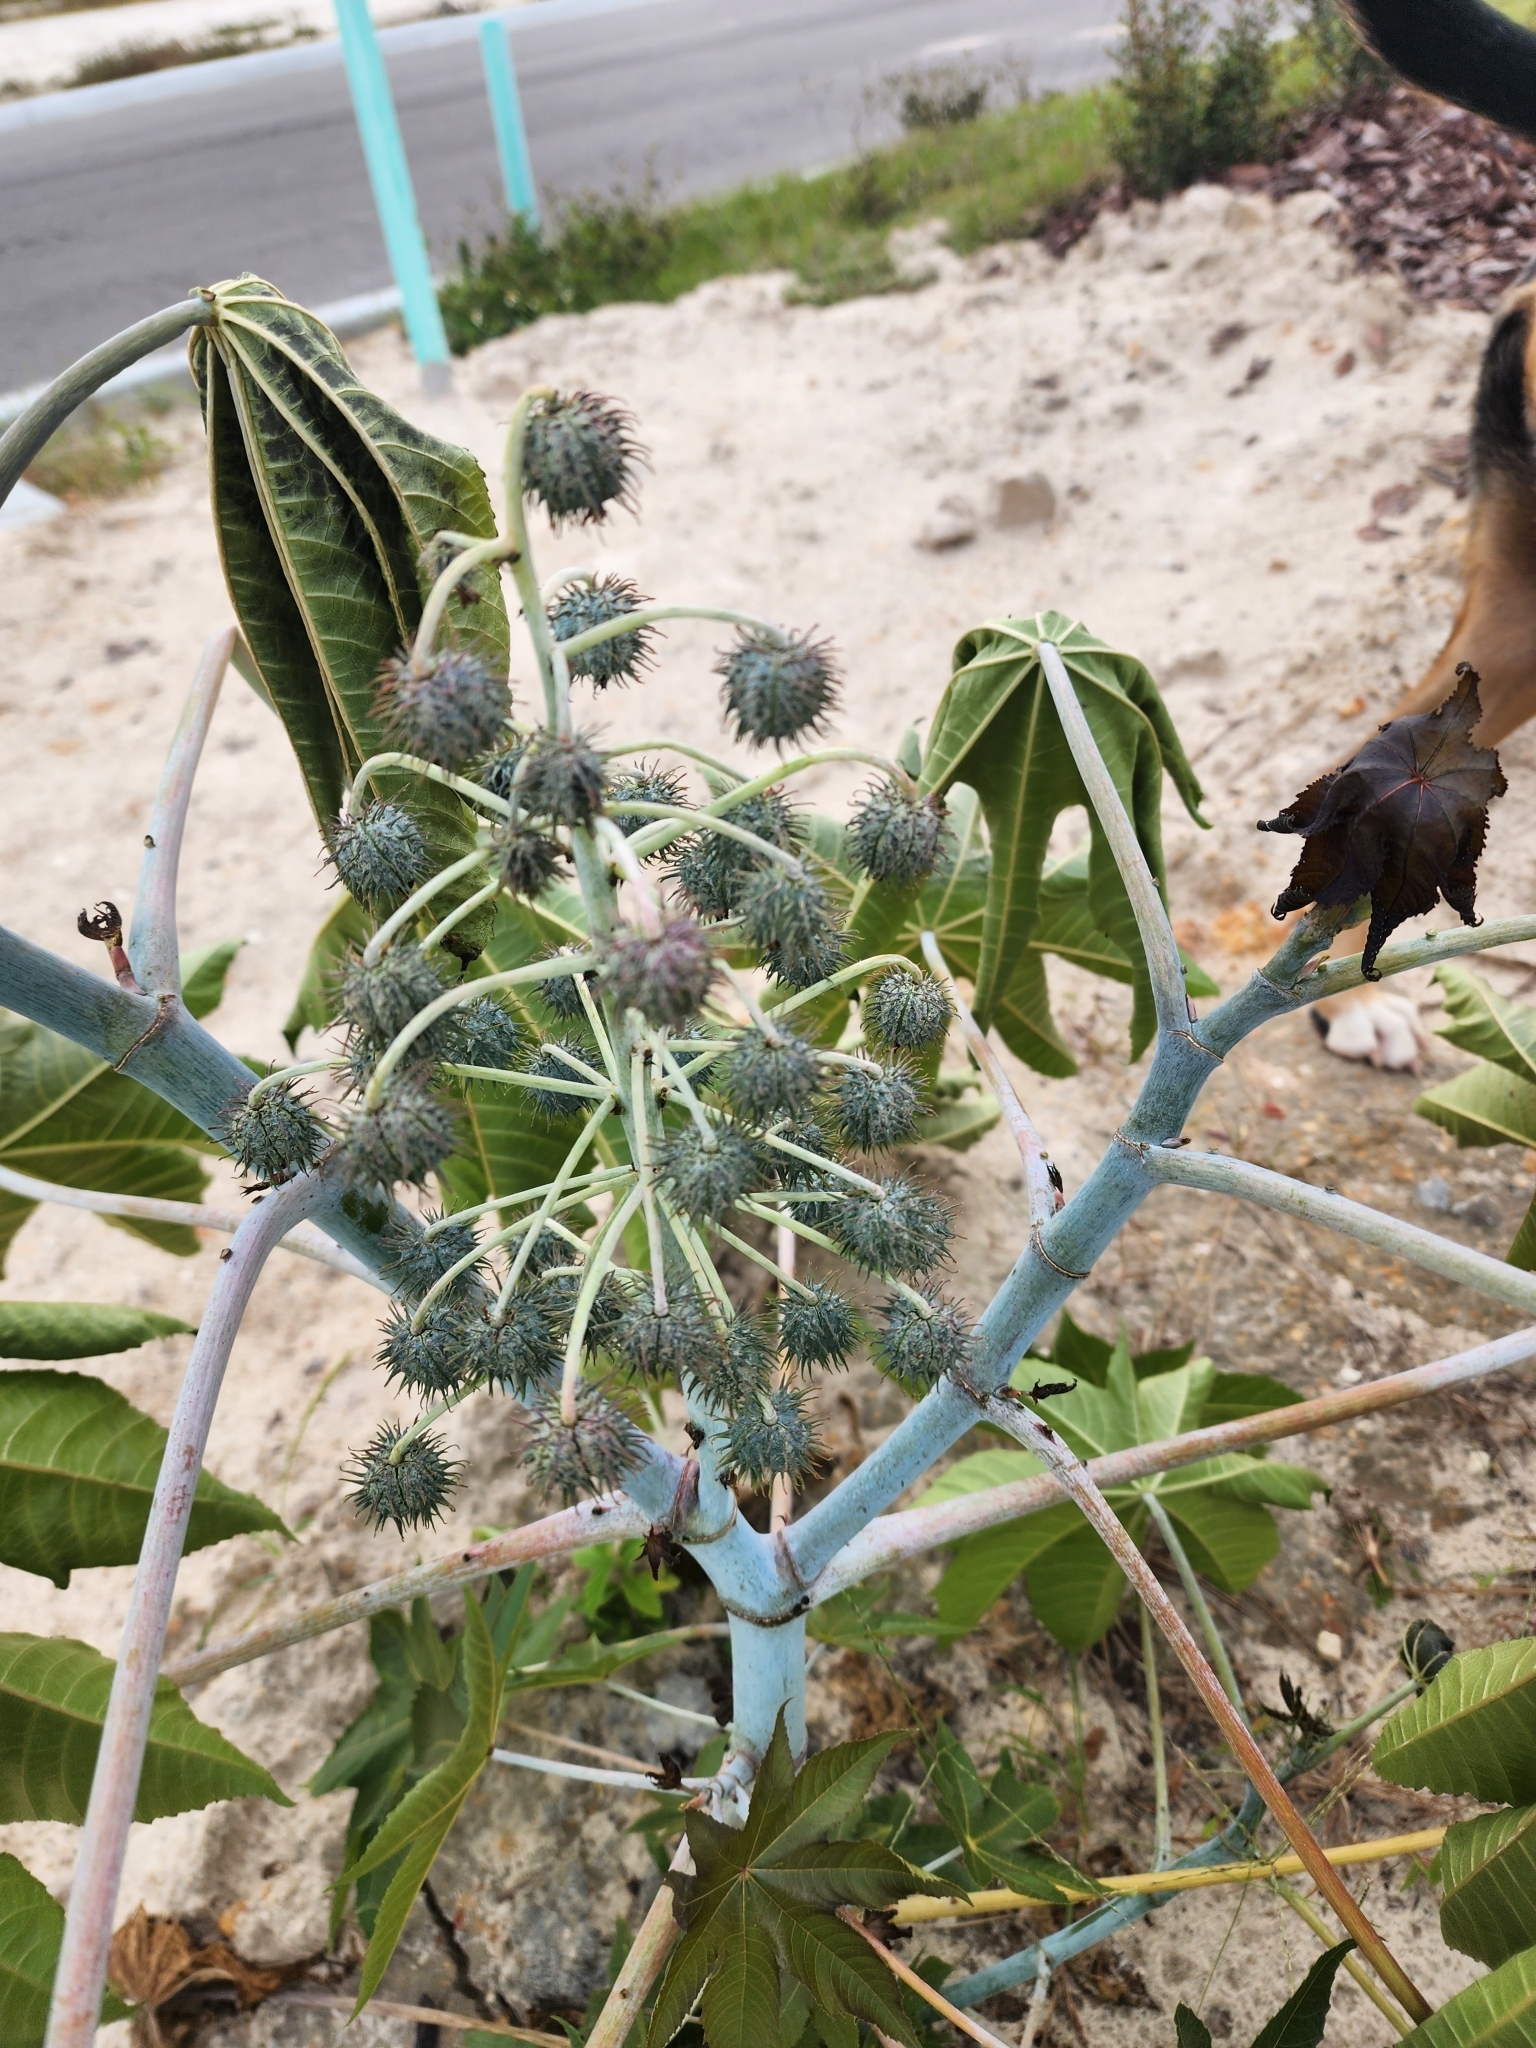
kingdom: Plantae
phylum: Tracheophyta
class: Magnoliopsida
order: Malpighiales
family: Euphorbiaceae
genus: Ricinus
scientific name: Ricinus communis
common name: Castor-oil-plant
